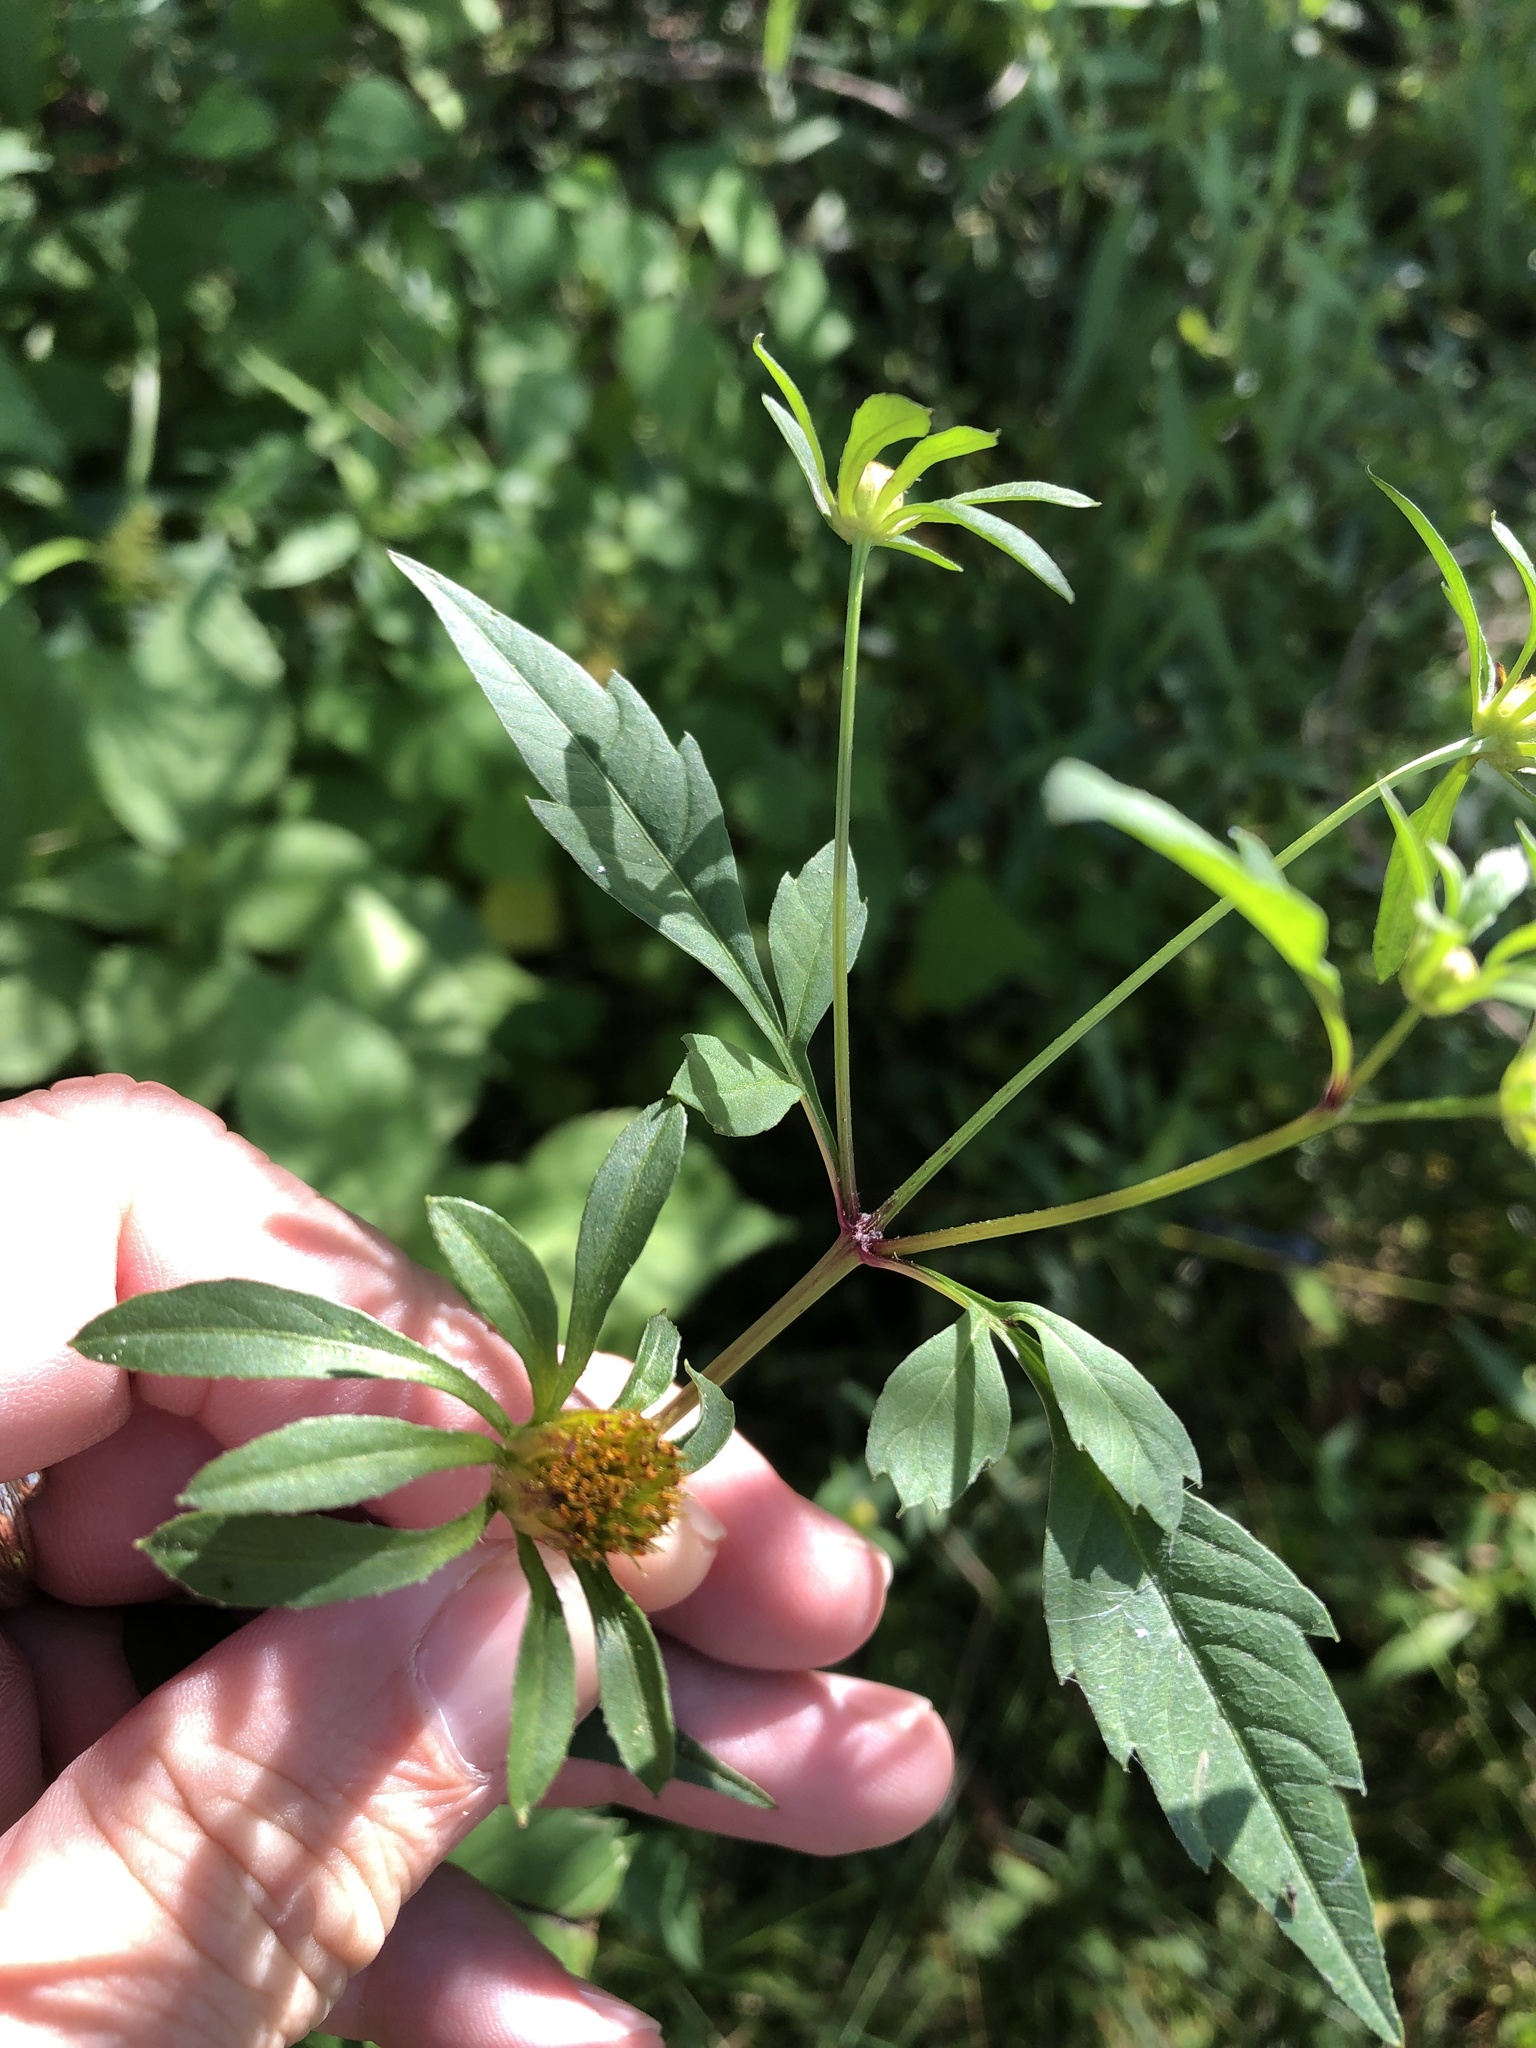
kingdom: Plantae
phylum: Tracheophyta
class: Magnoliopsida
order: Asterales
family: Asteraceae
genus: Bidens
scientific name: Bidens frondosa
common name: Beggarticks
